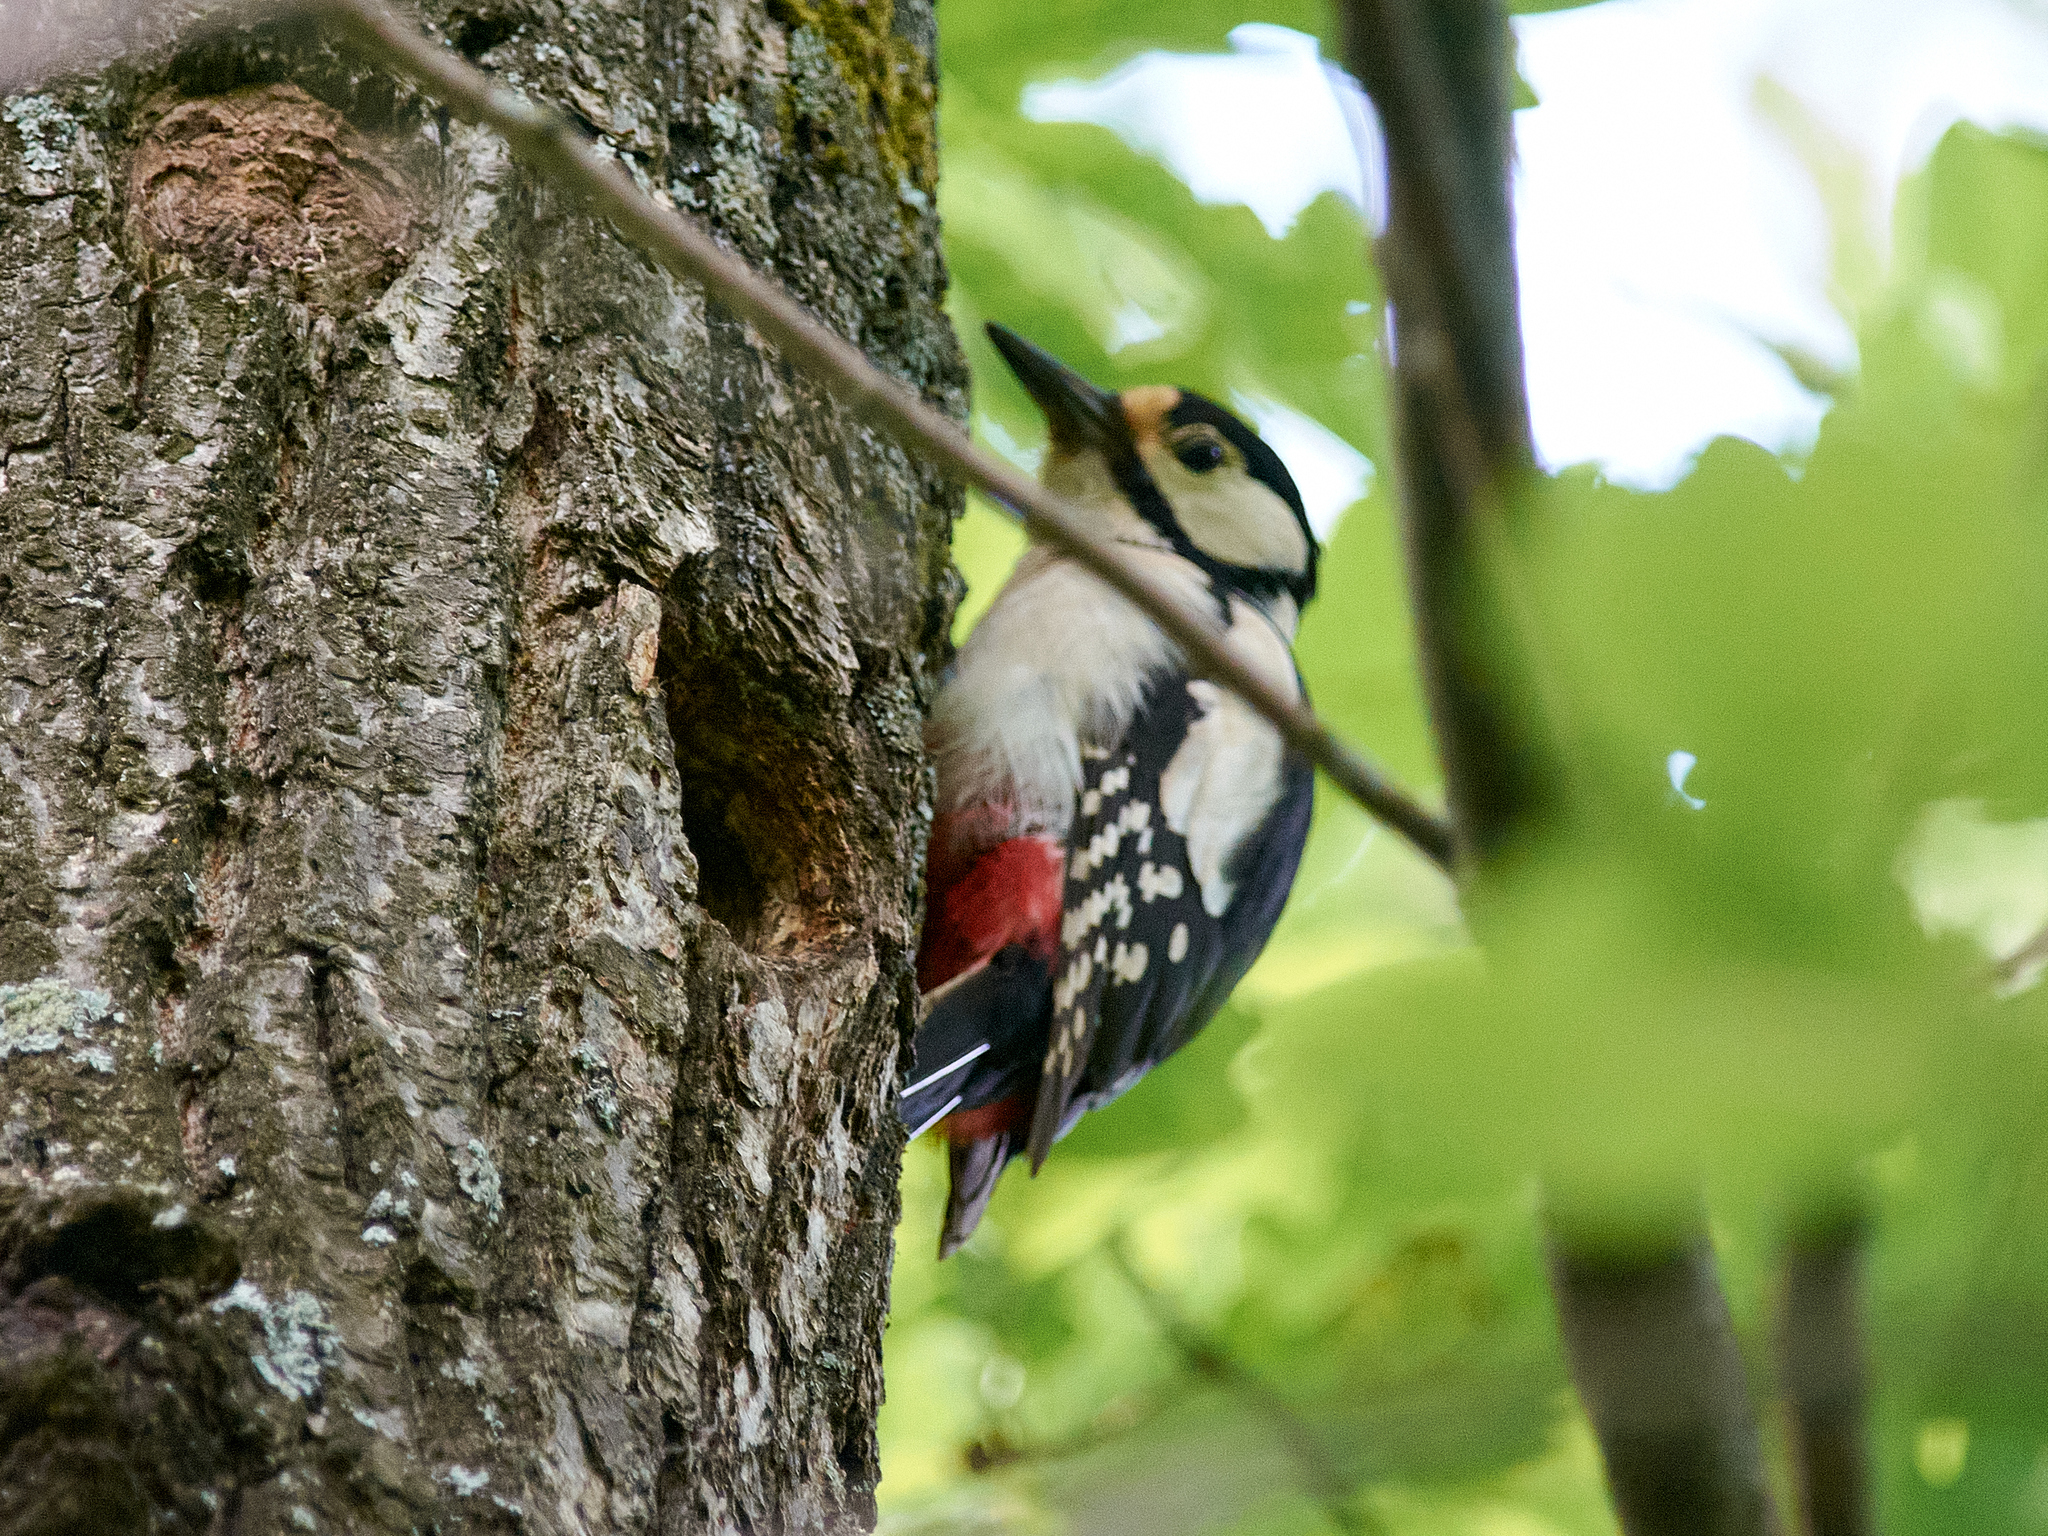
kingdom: Animalia
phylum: Chordata
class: Aves
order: Piciformes
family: Picidae
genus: Dendrocopos
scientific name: Dendrocopos major
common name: Great spotted woodpecker
